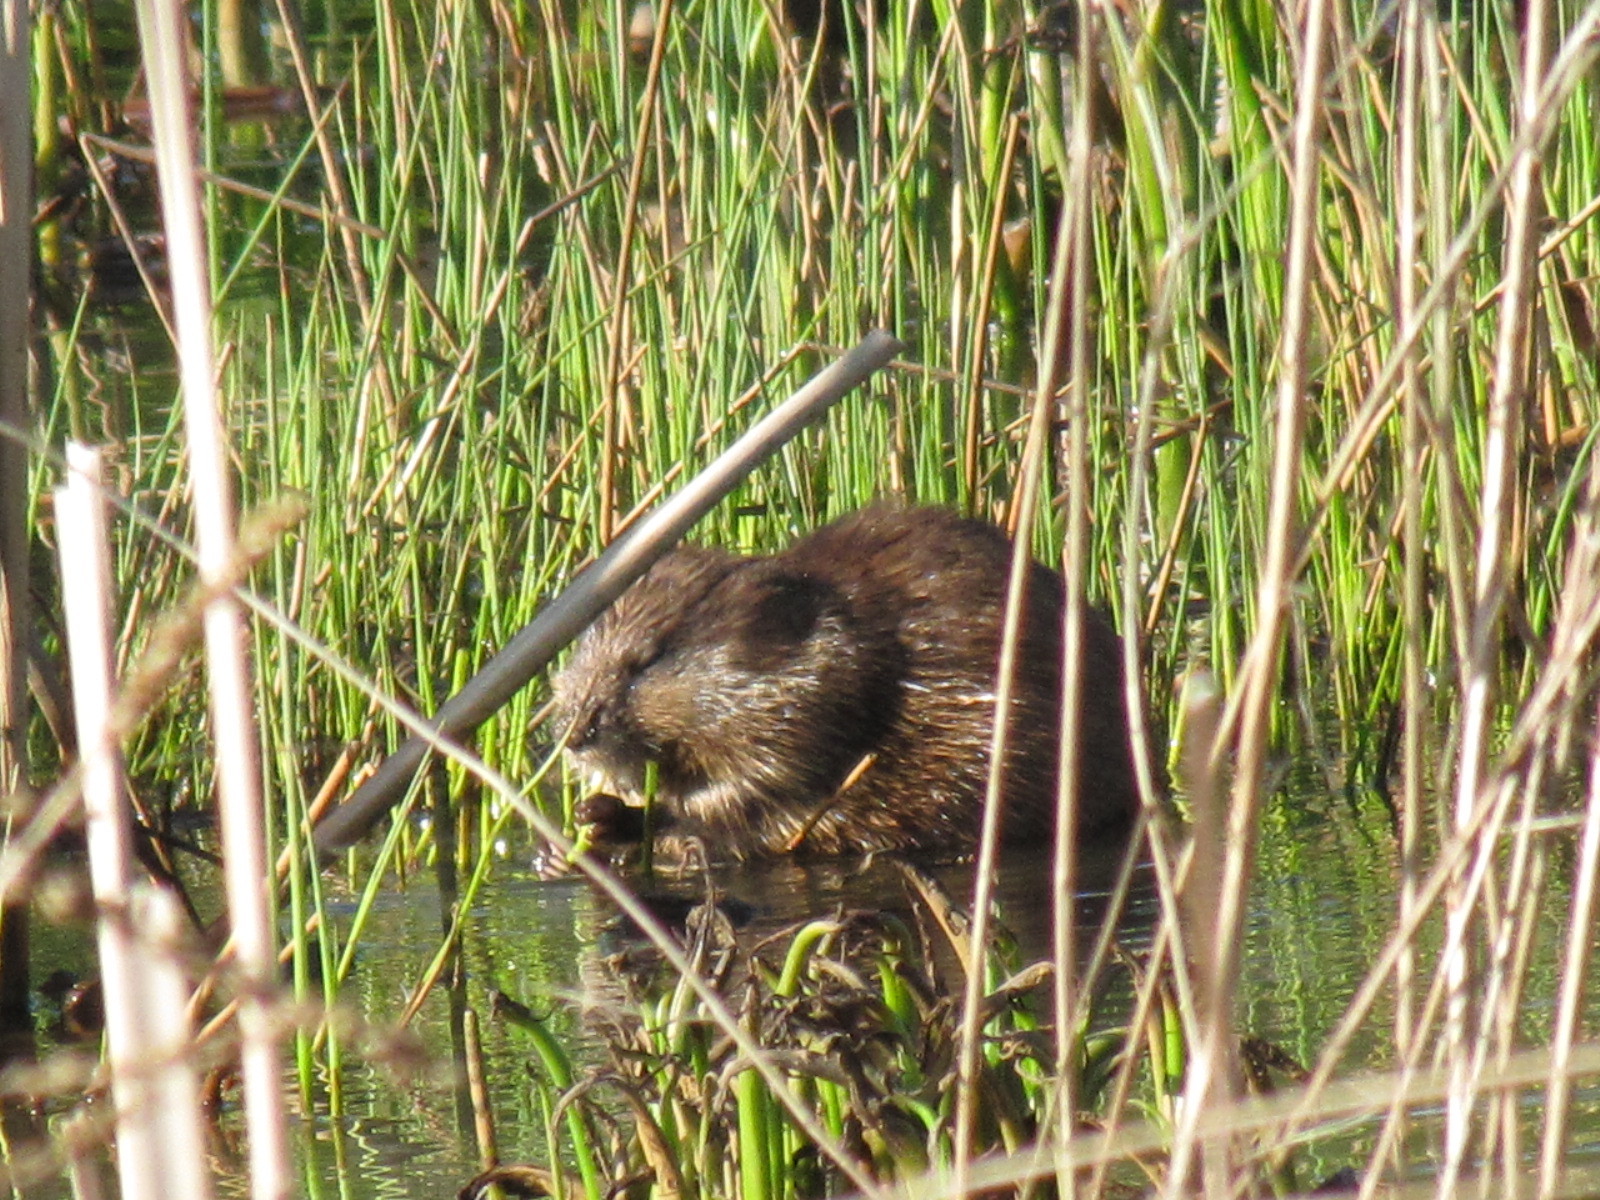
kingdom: Animalia
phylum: Chordata
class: Mammalia
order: Rodentia
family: Cricetidae
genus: Ondatra
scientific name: Ondatra zibethicus
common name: Muskrat
